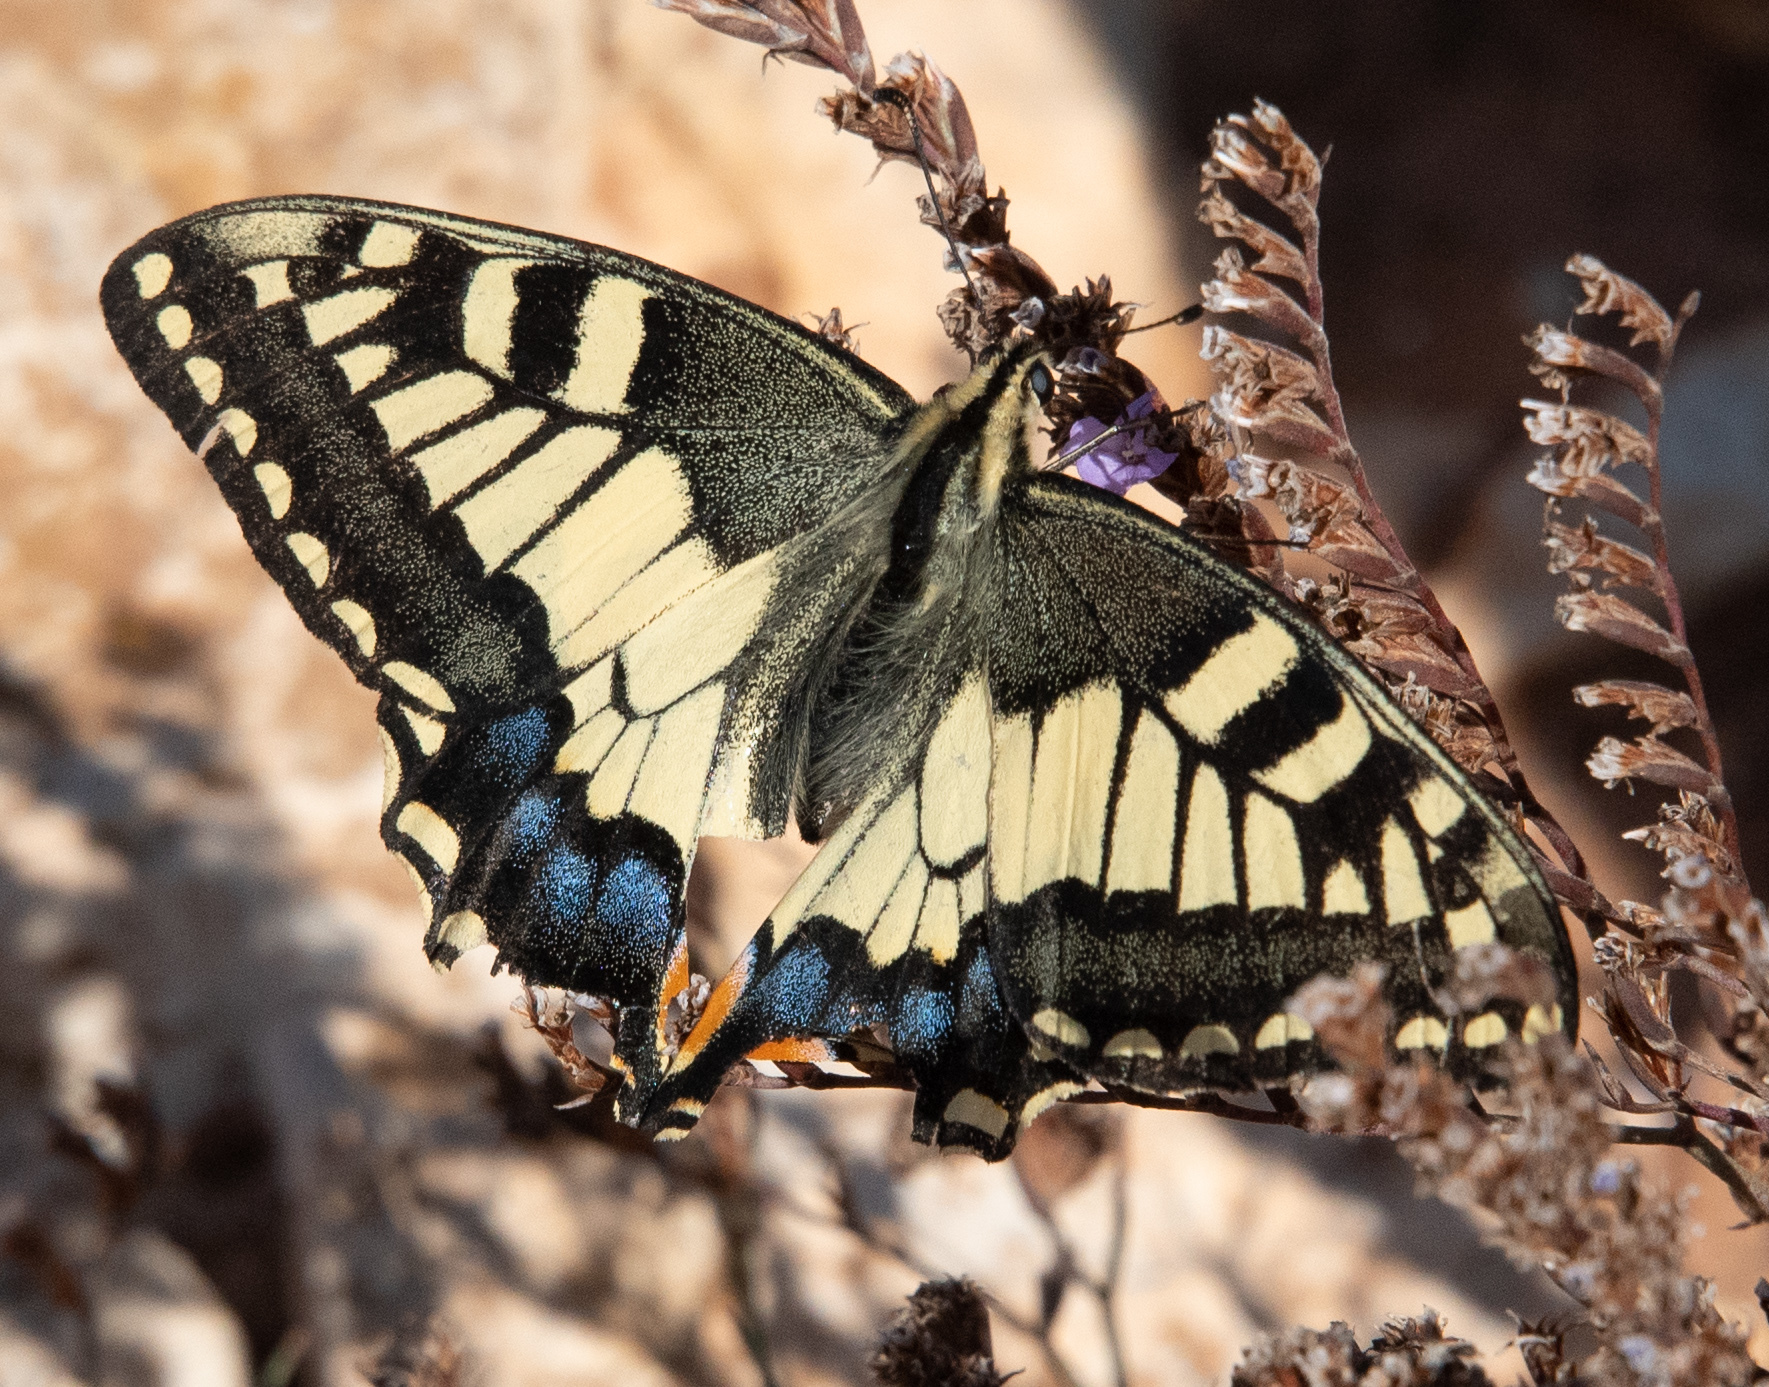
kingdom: Animalia
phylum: Arthropoda
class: Insecta
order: Lepidoptera
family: Papilionidae
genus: Papilio
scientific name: Papilio machaon
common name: Swallowtail
